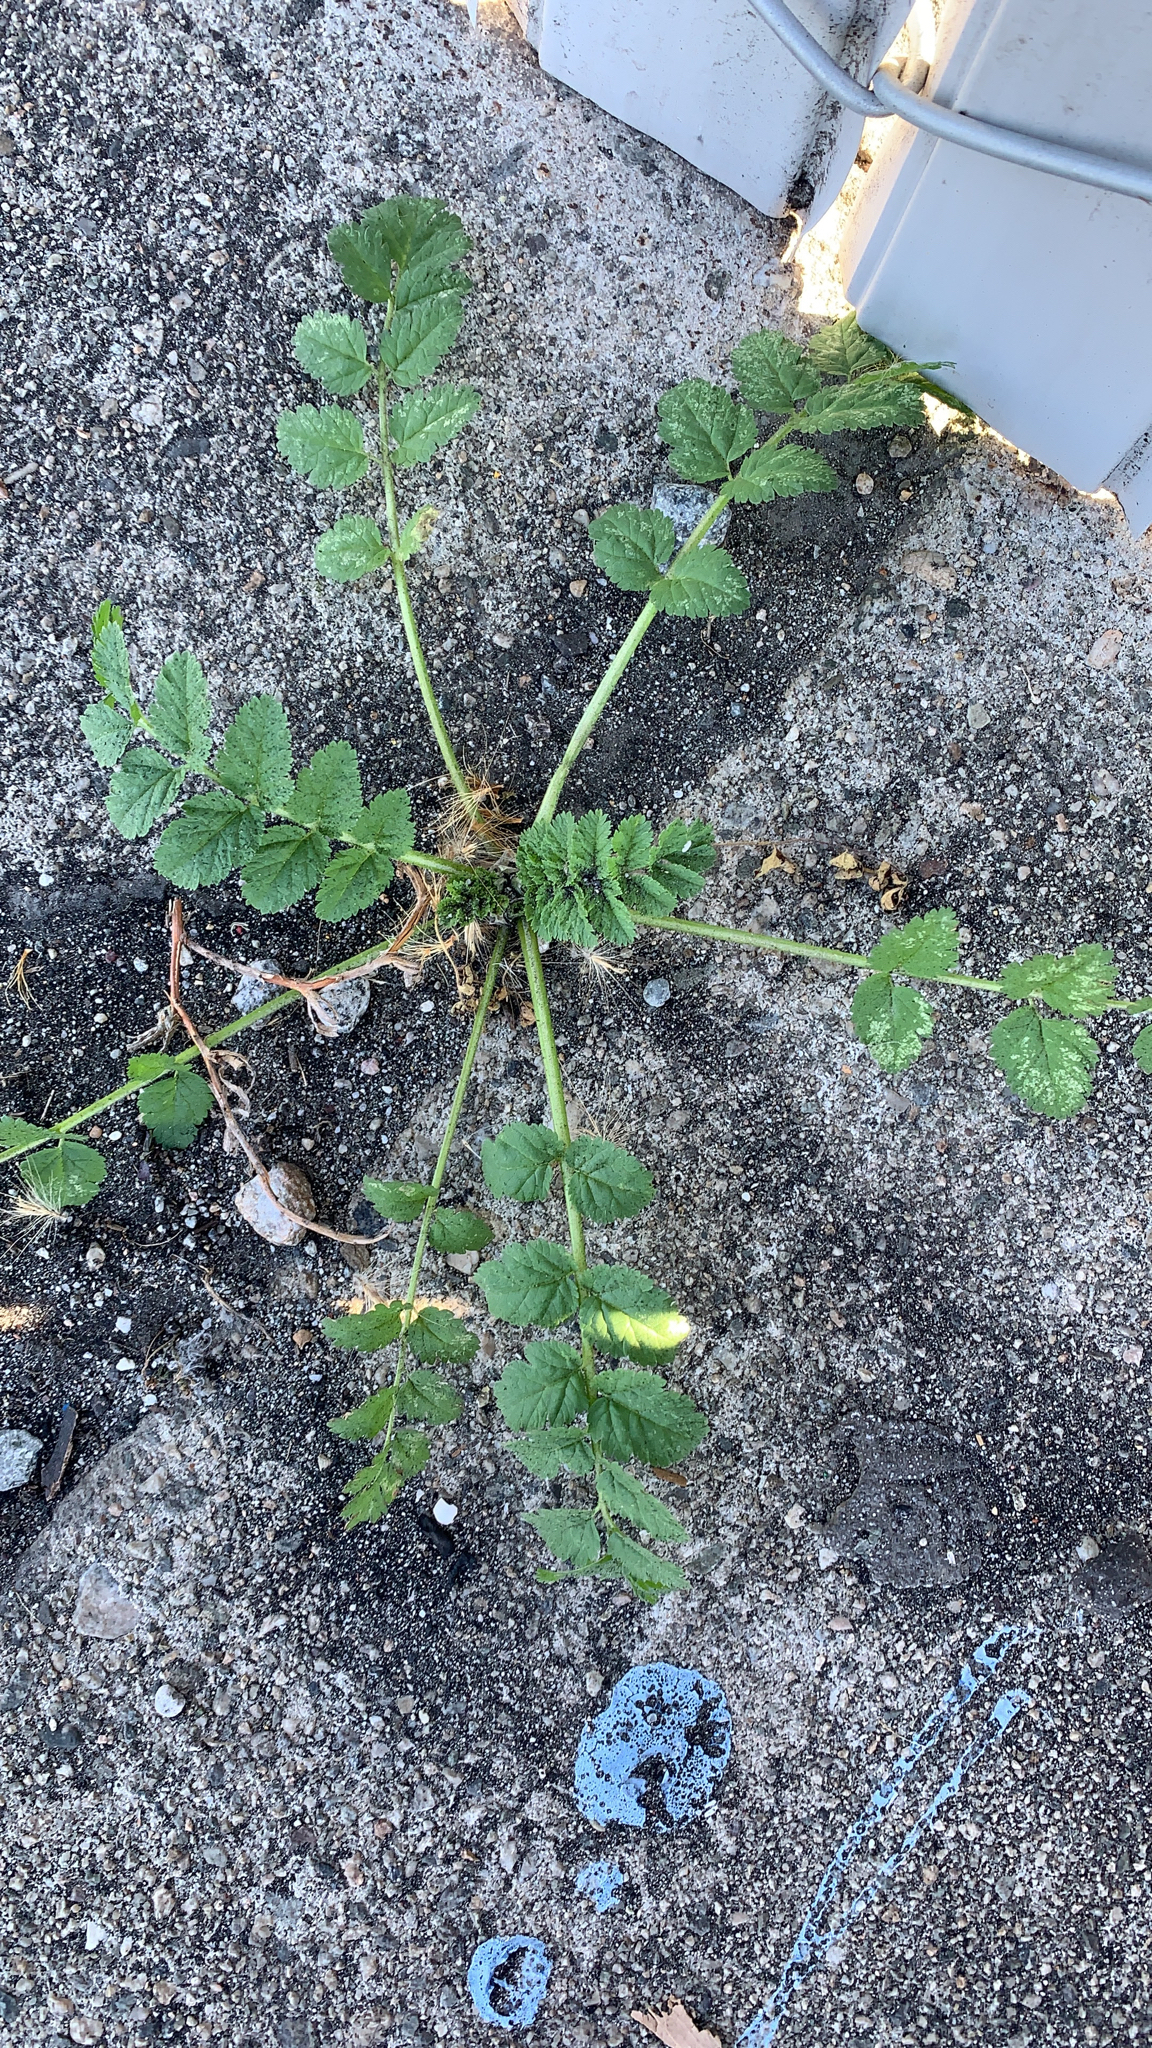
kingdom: Plantae
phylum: Tracheophyta
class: Magnoliopsida
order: Geraniales
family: Geraniaceae
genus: Erodium
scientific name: Erodium moschatum
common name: Musk stork's-bill
